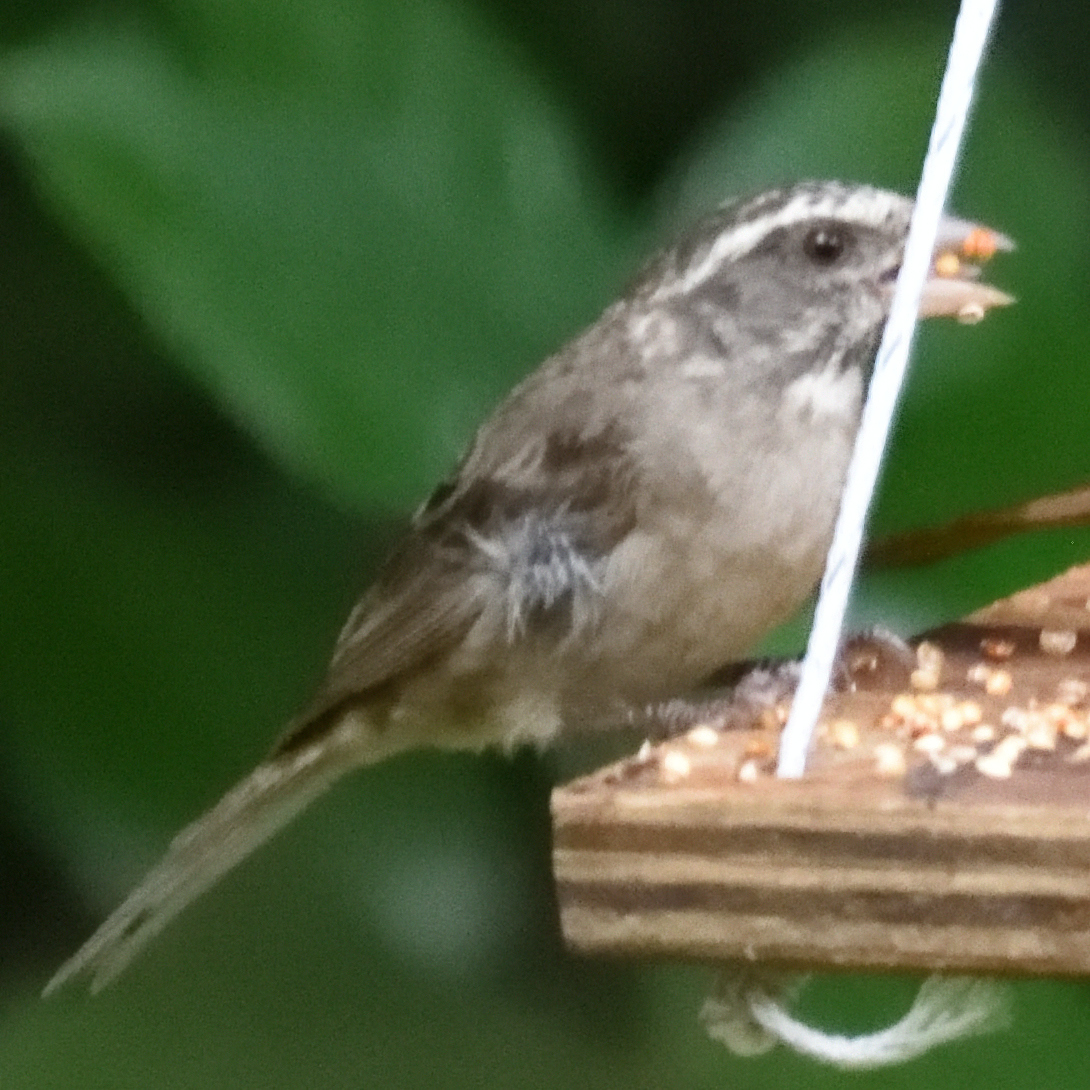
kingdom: Animalia
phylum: Chordata
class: Aves
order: Passeriformes
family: Fringillidae
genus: Crithagra
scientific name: Crithagra gularis
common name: Streaky-headed seedeater
